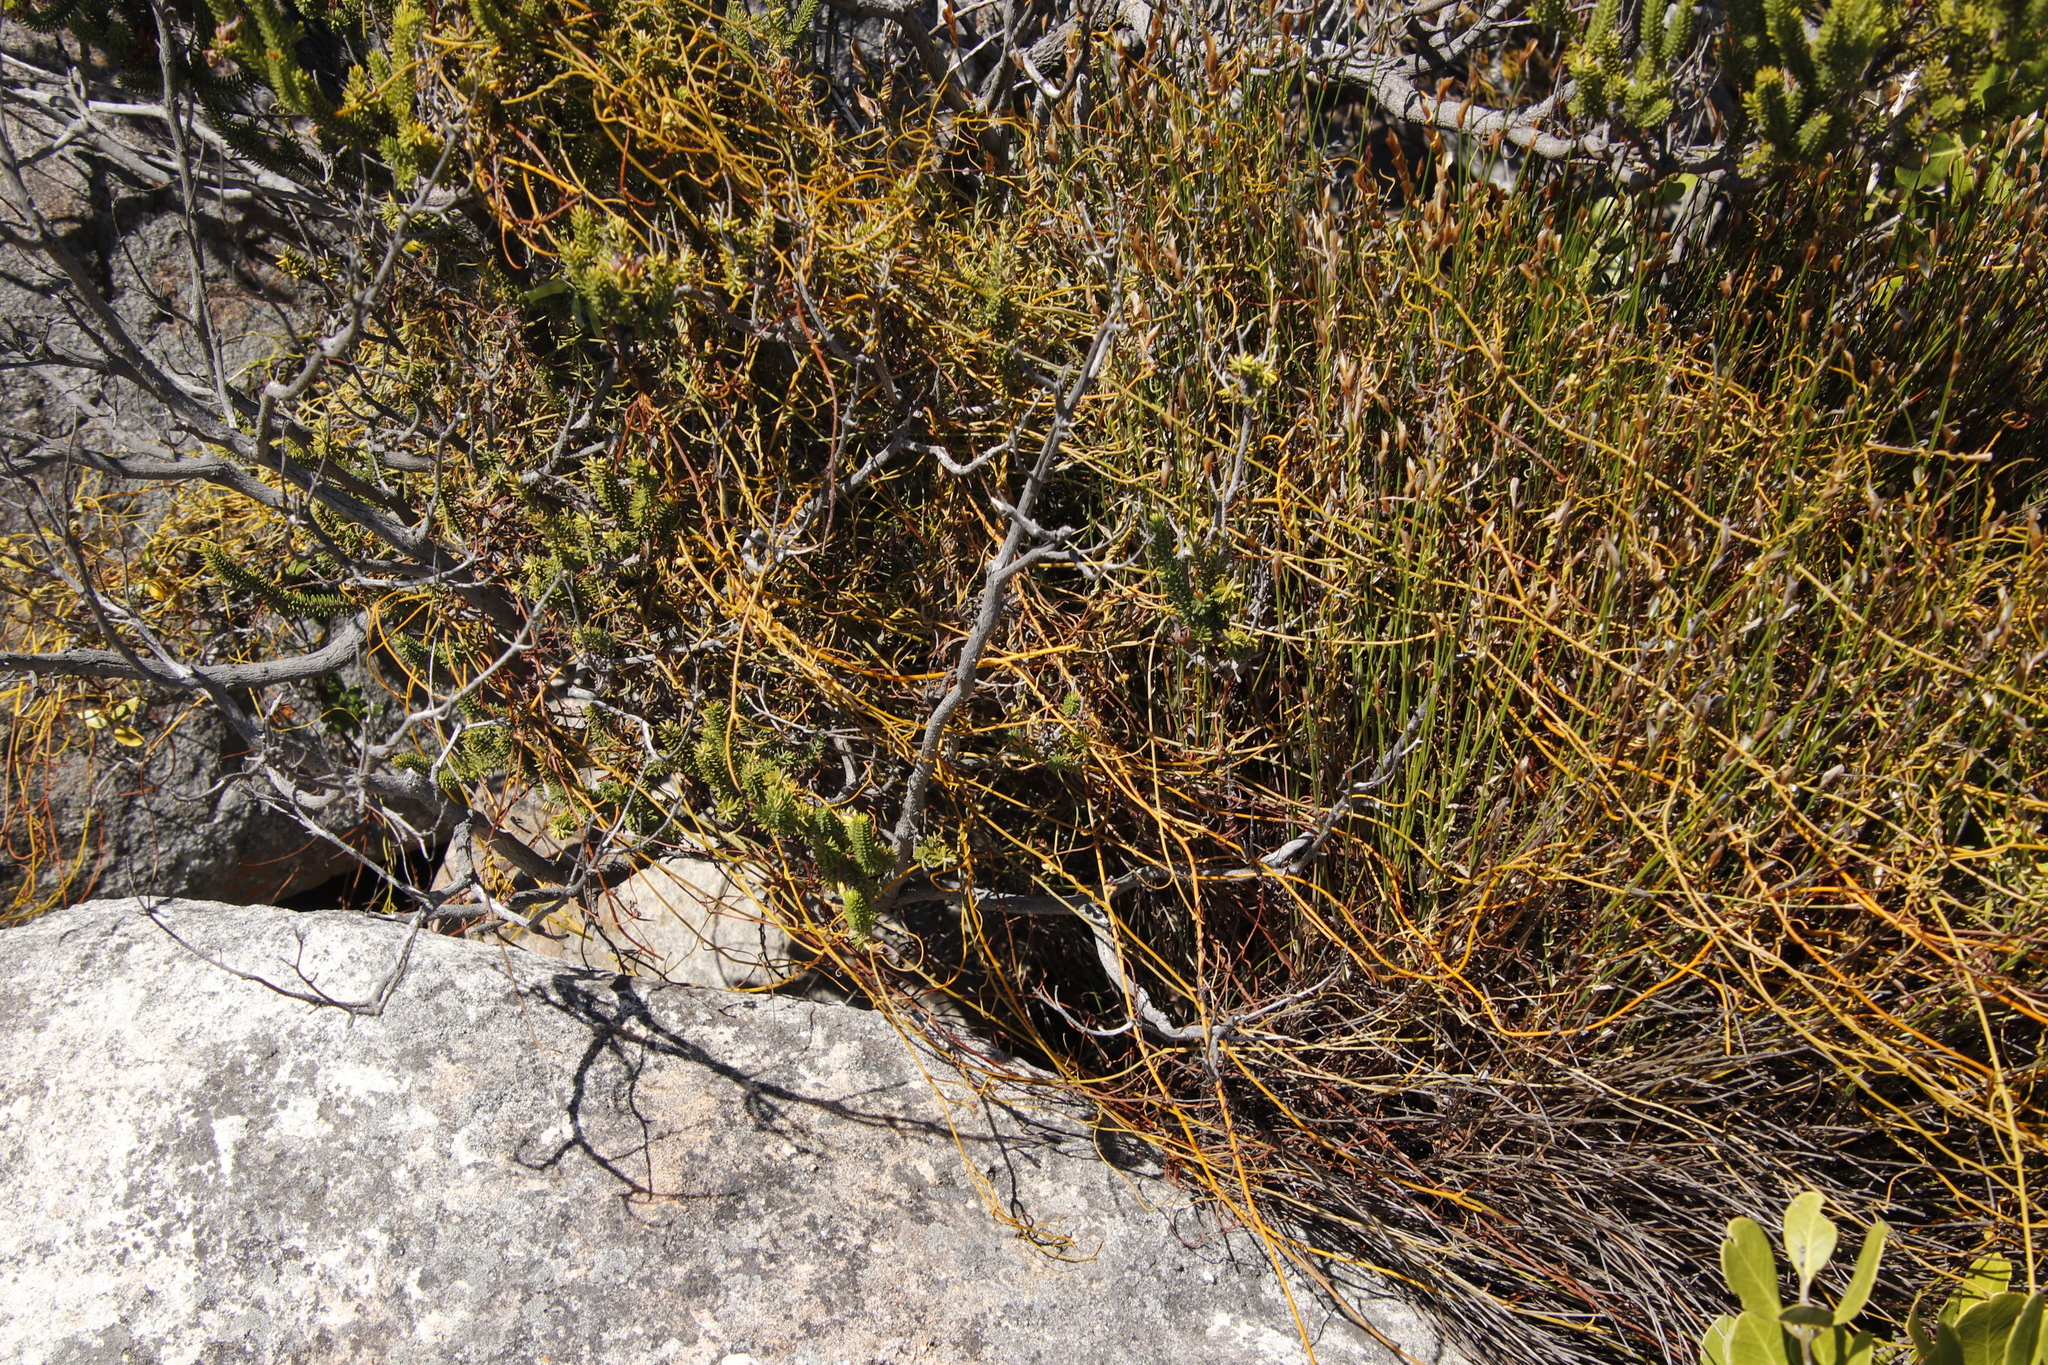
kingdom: Plantae
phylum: Tracheophyta
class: Magnoliopsida
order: Laurales
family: Lauraceae
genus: Cassytha
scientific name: Cassytha ciliolata
